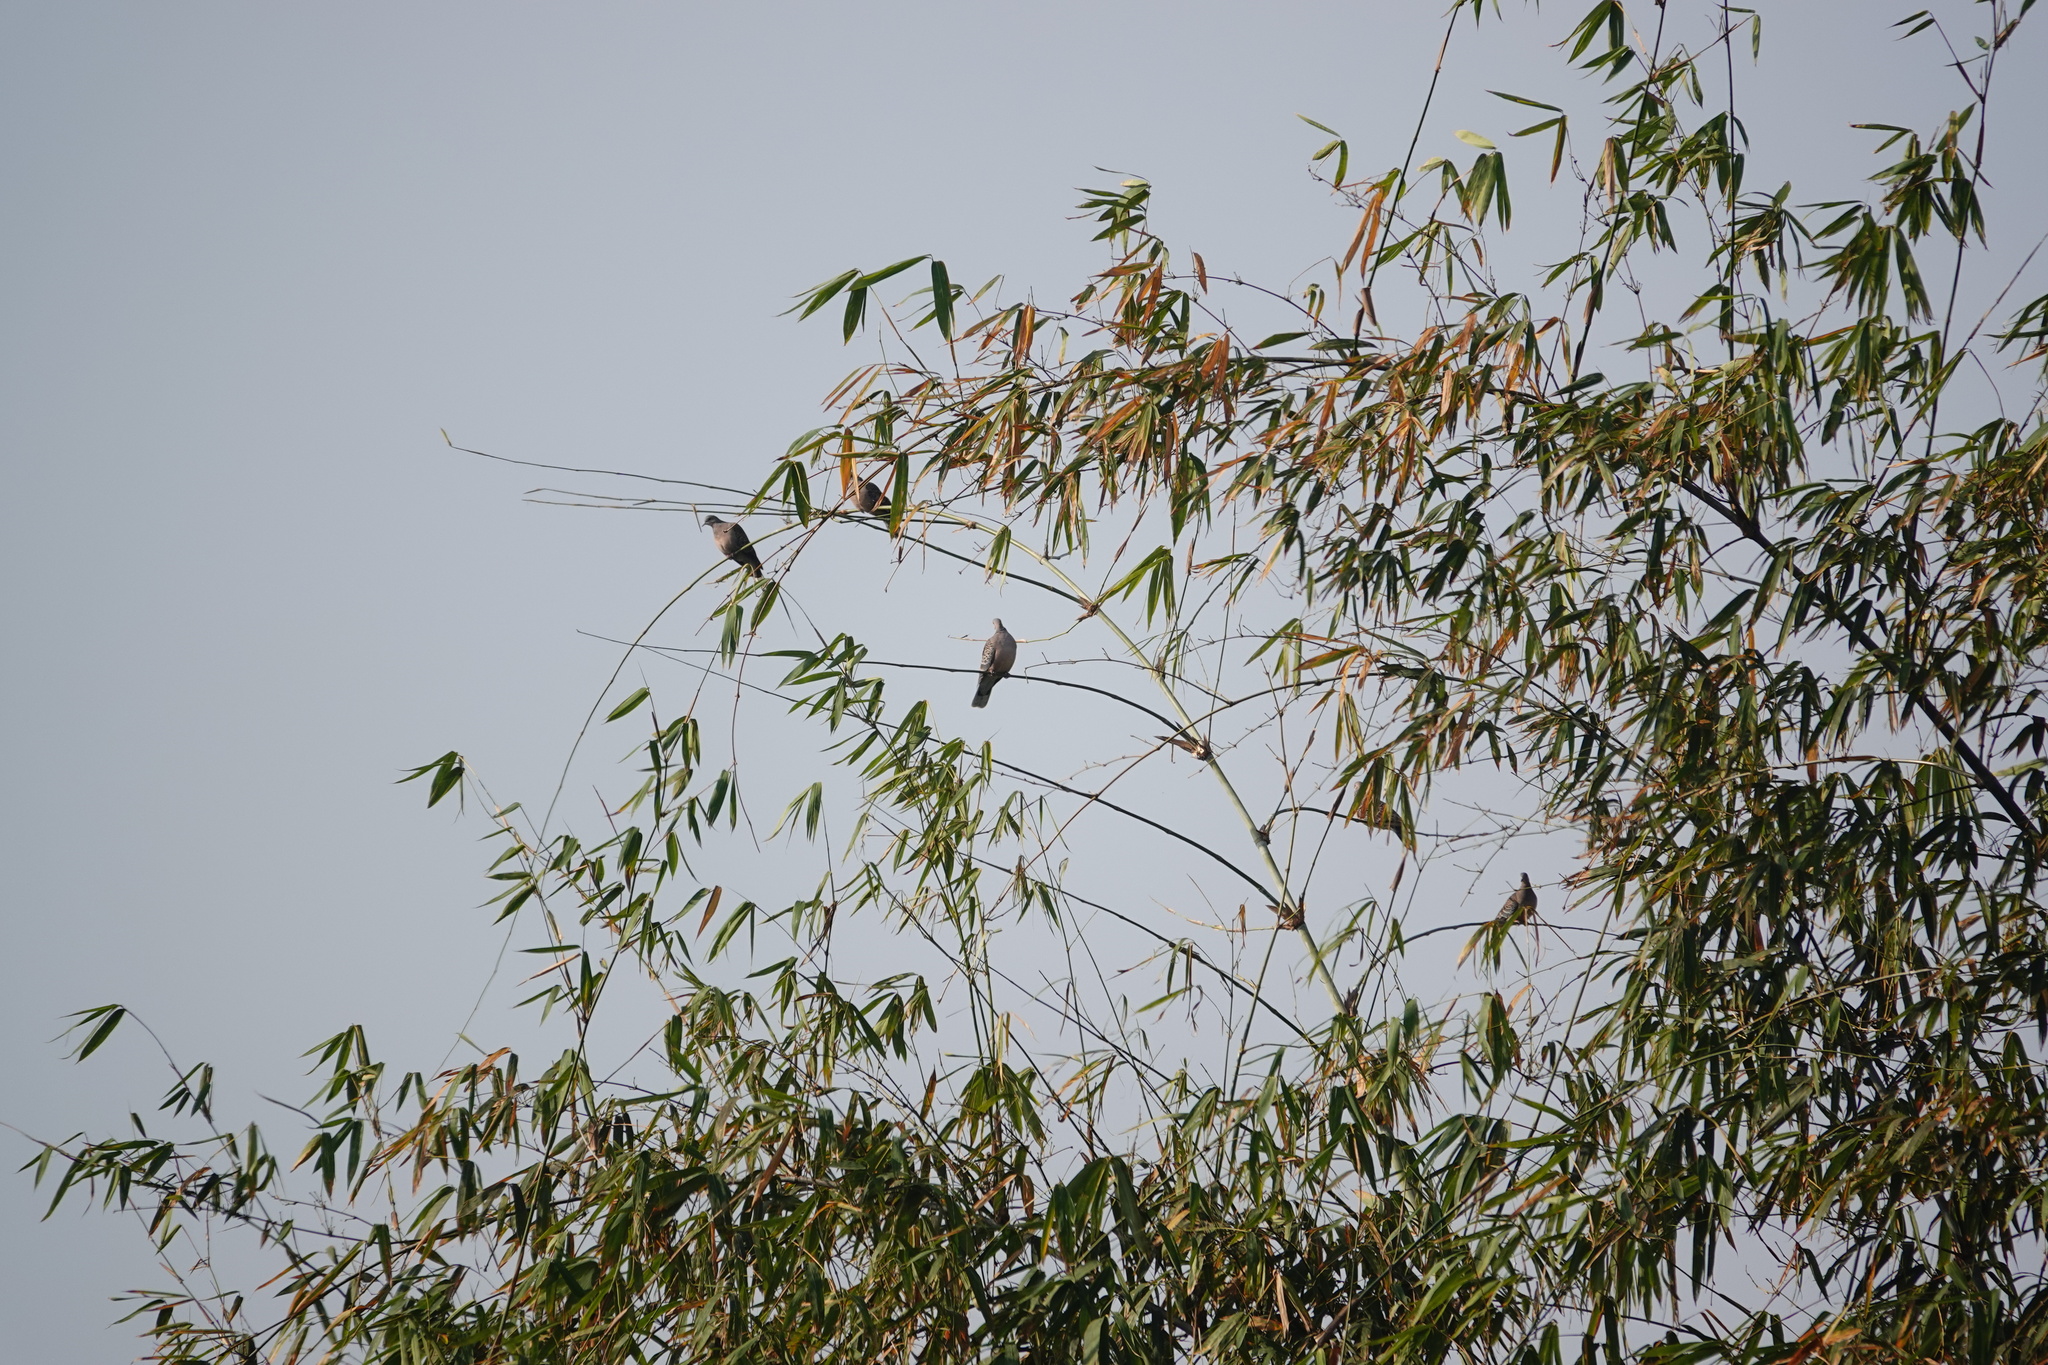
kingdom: Animalia
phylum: Chordata
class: Aves
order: Columbiformes
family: Columbidae
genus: Streptopelia
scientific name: Streptopelia orientalis
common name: Oriental turtle dove
